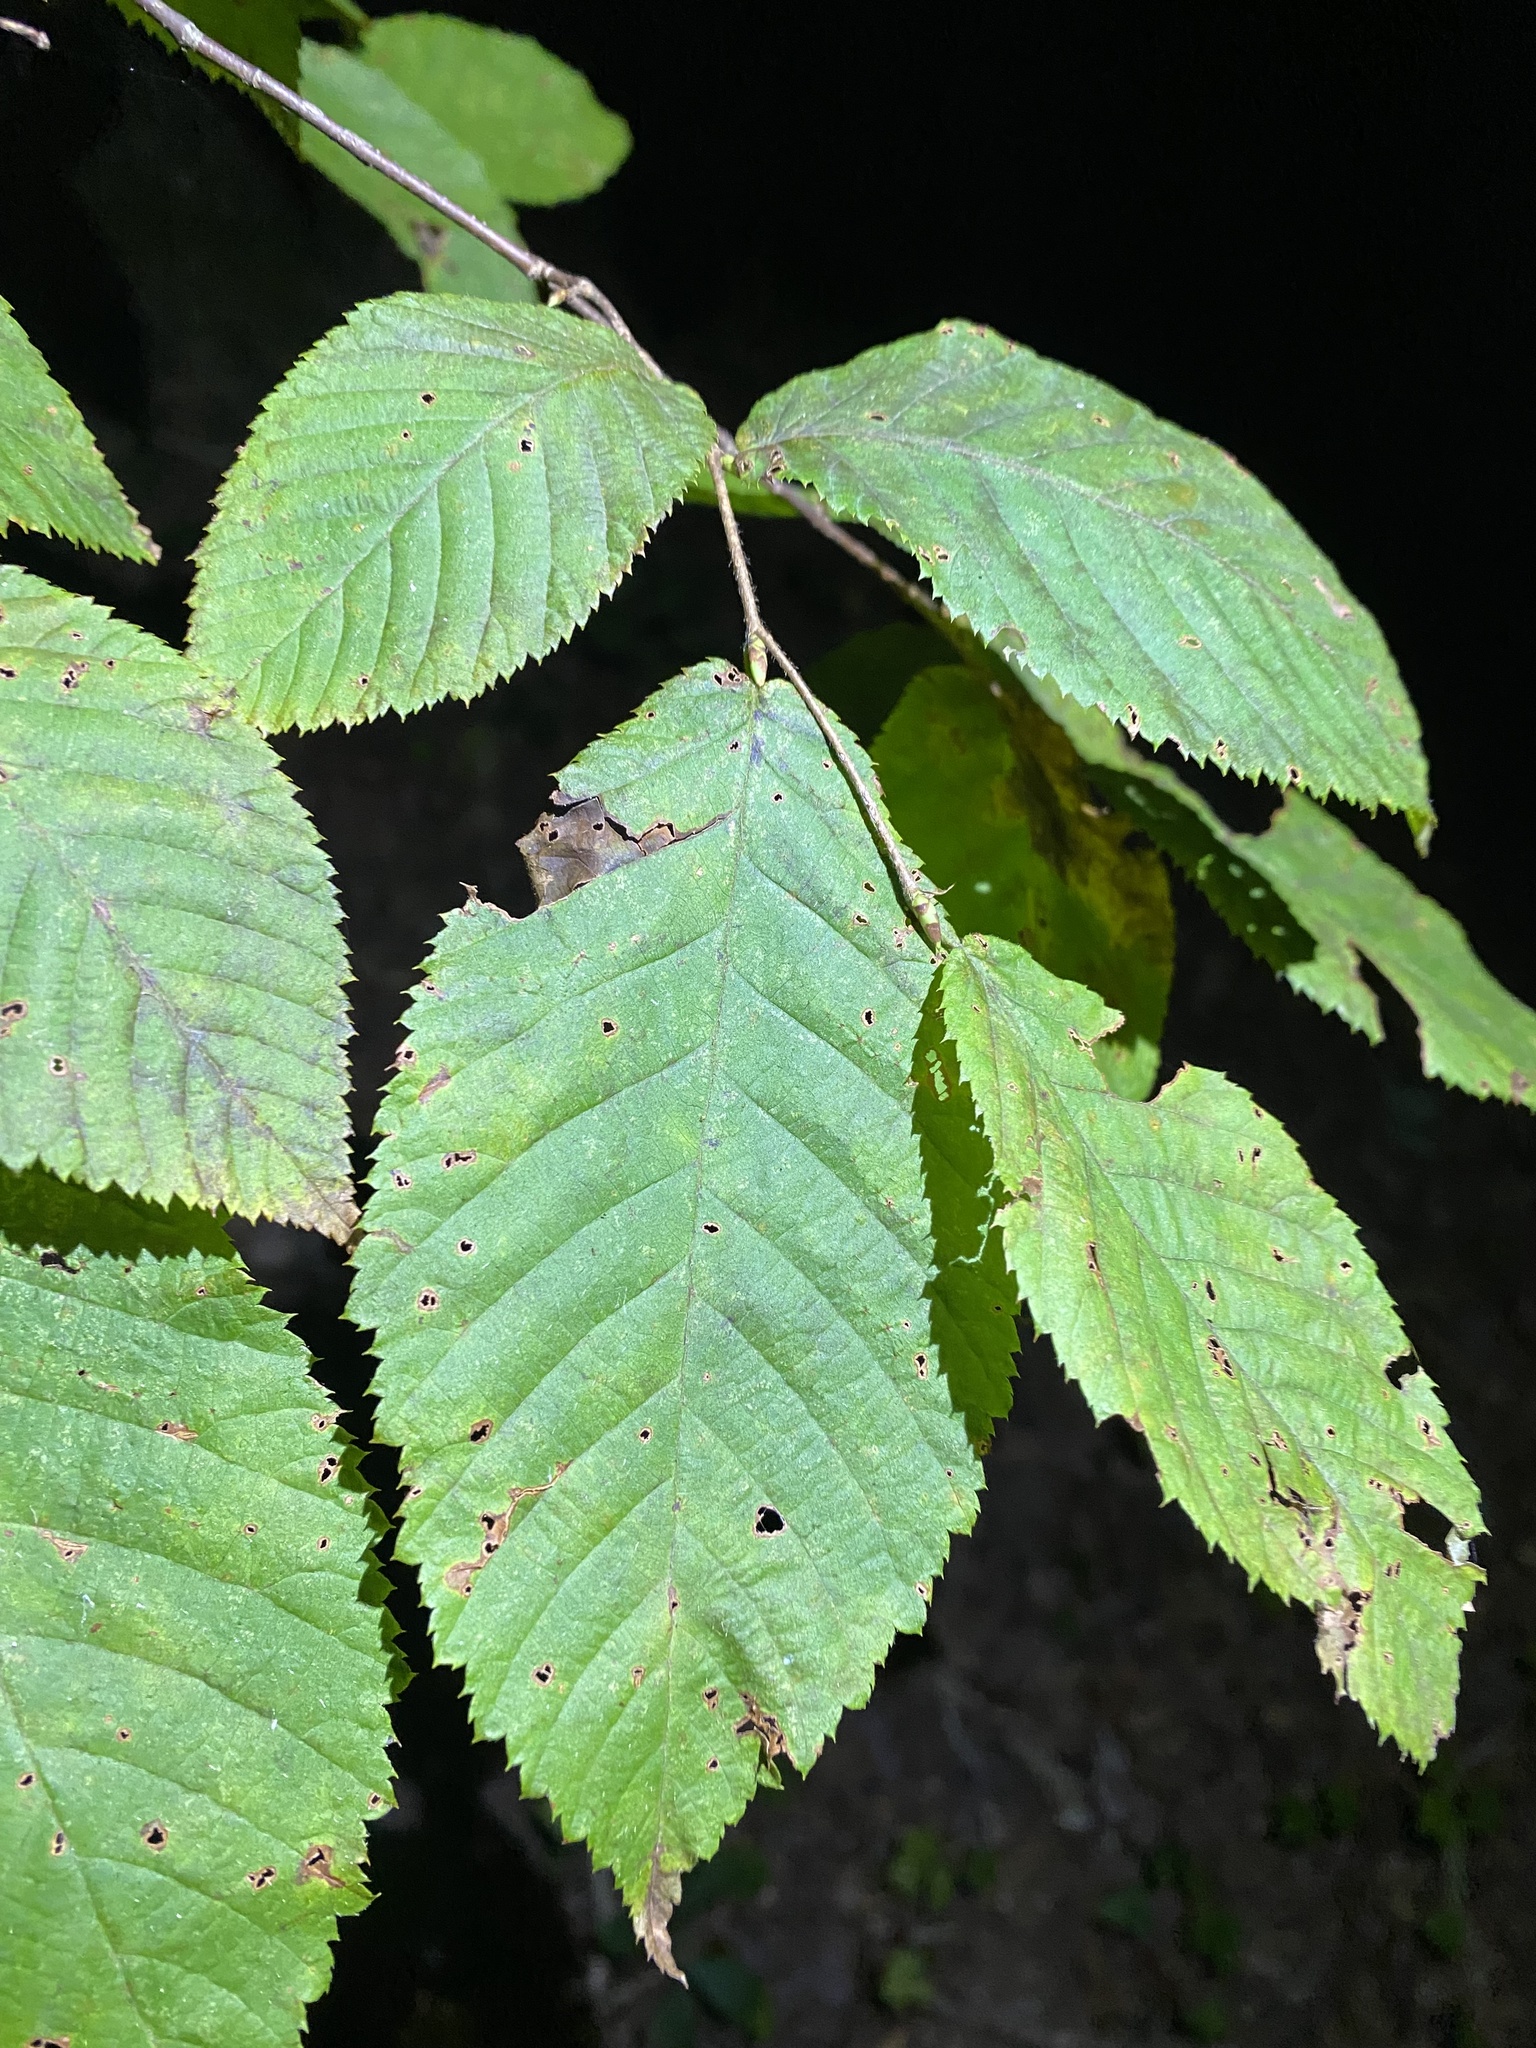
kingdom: Plantae
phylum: Tracheophyta
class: Magnoliopsida
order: Fagales
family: Betulaceae
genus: Ostrya
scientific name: Ostrya virginiana
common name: Ironwood
